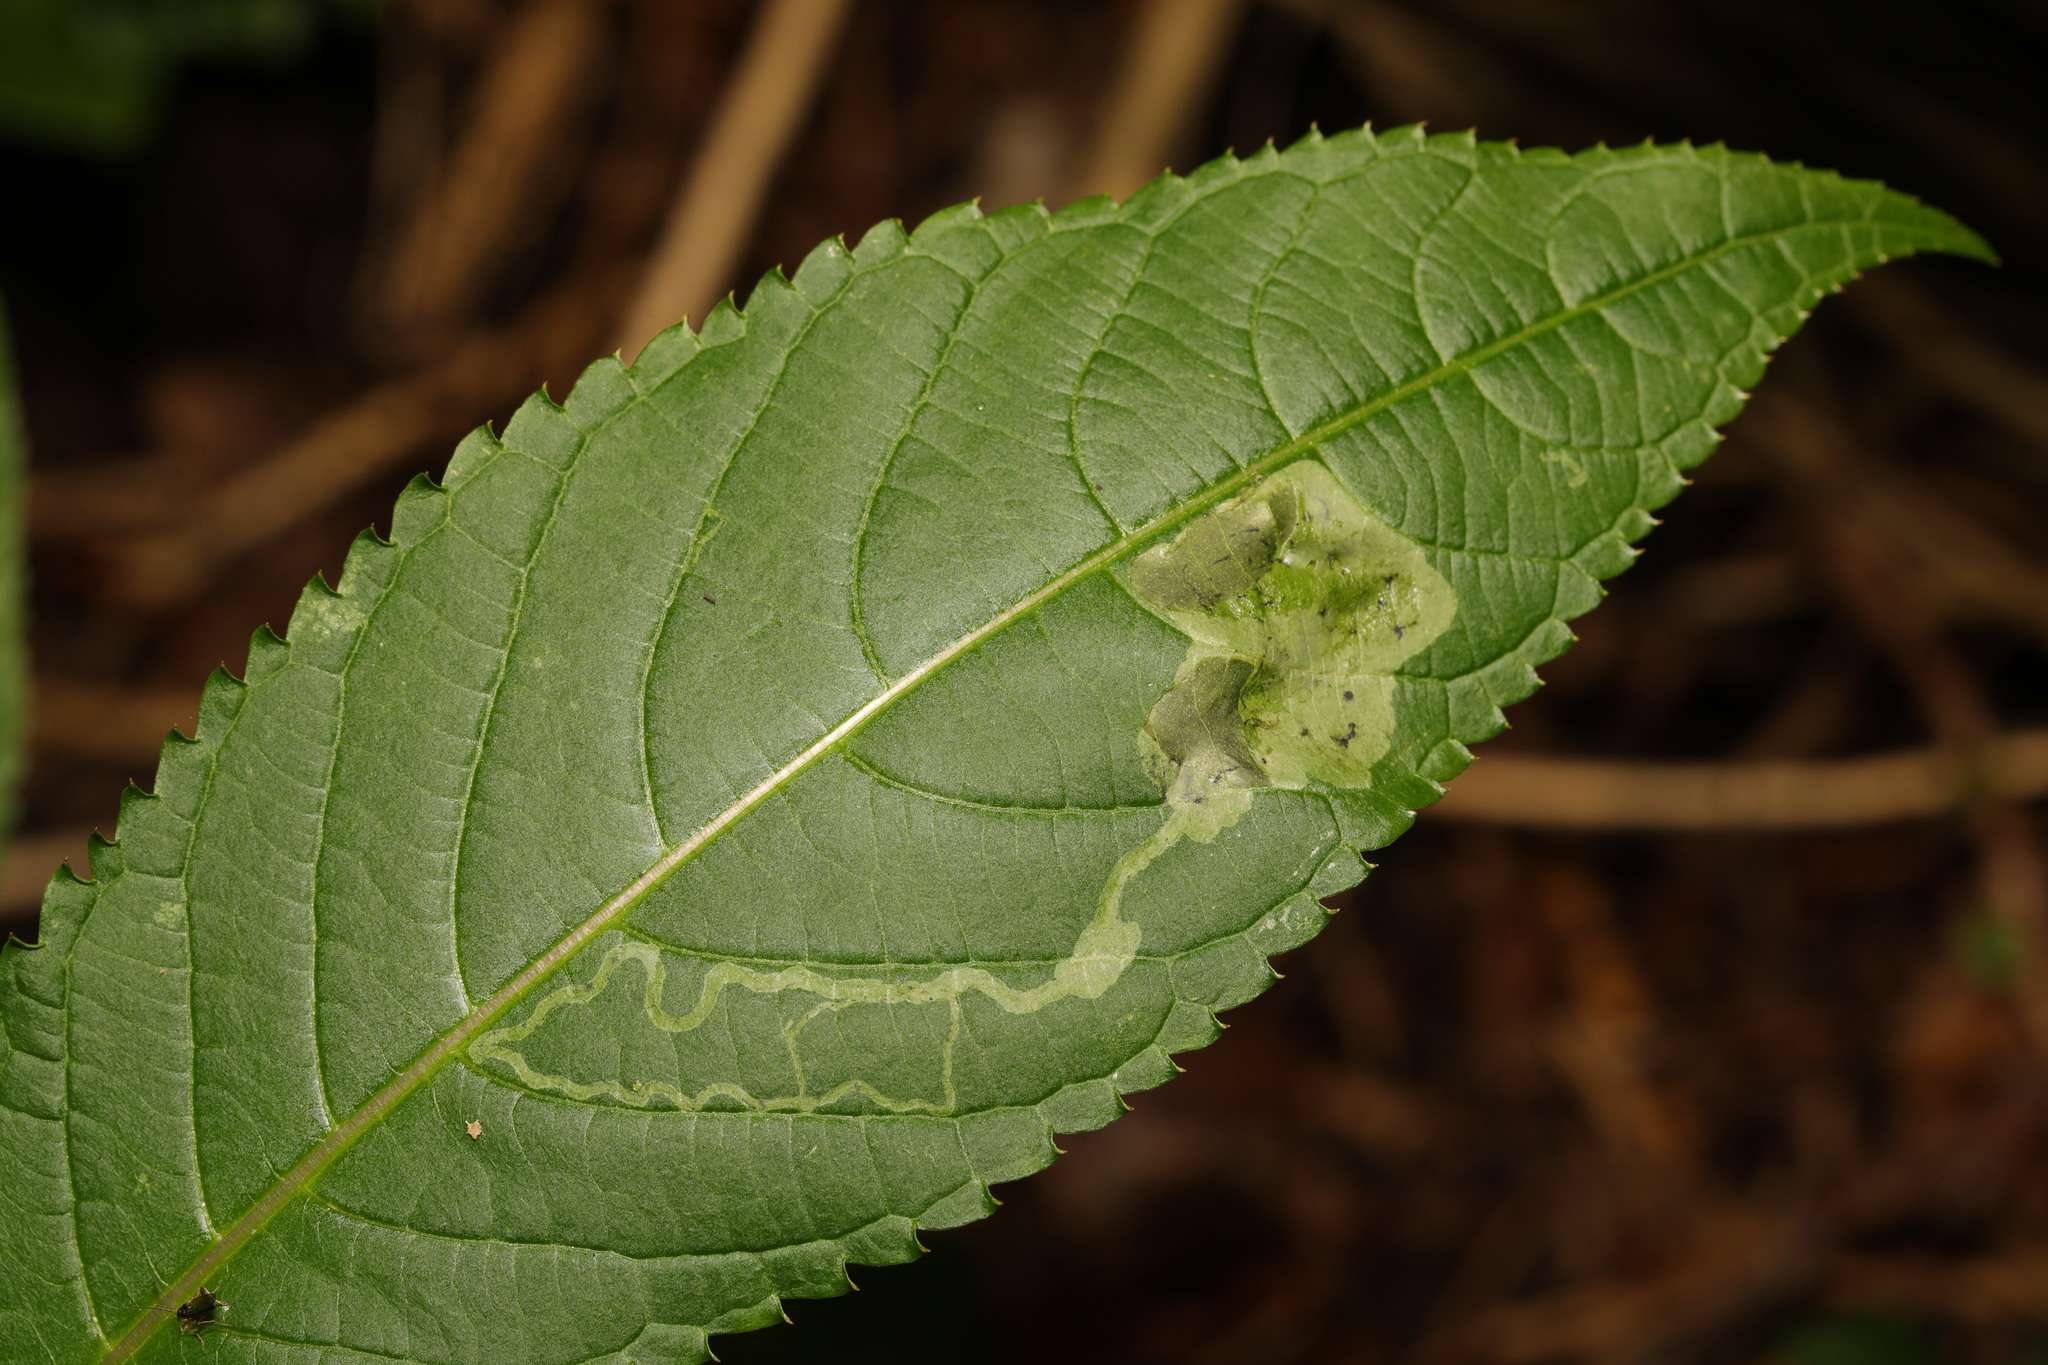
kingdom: Animalia
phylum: Arthropoda
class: Insecta
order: Diptera
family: Agromyzidae
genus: Phytoliriomyza
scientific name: Phytoliriomyza melampyga
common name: Jewelweed leaf-miner fly
